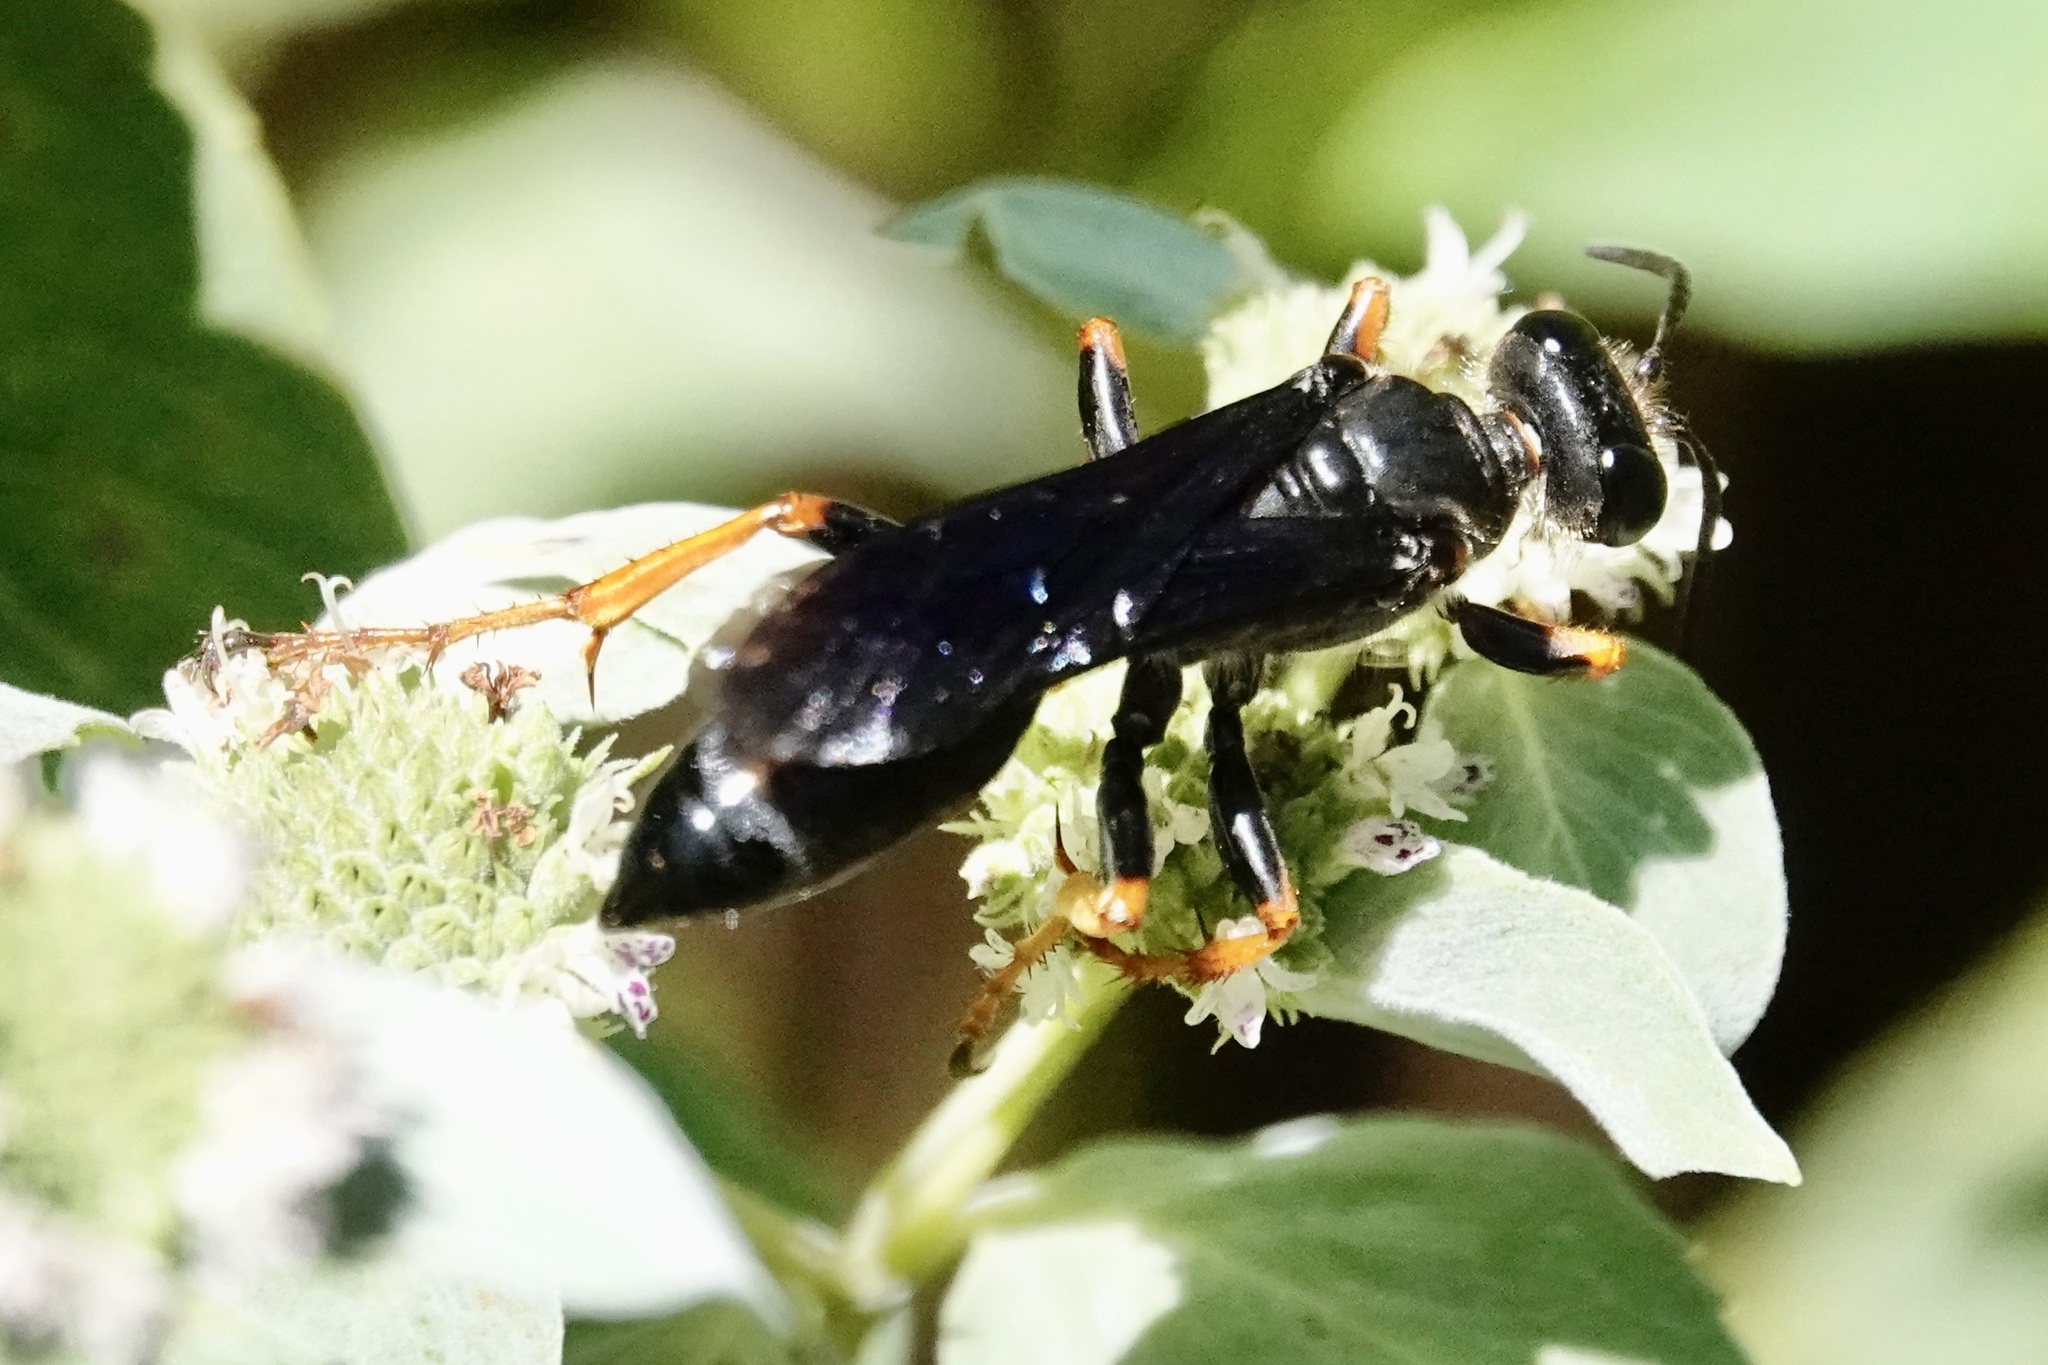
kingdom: Animalia
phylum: Arthropoda
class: Insecta
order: Hymenoptera
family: Sphecidae
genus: Sphex
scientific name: Sphex nudus
